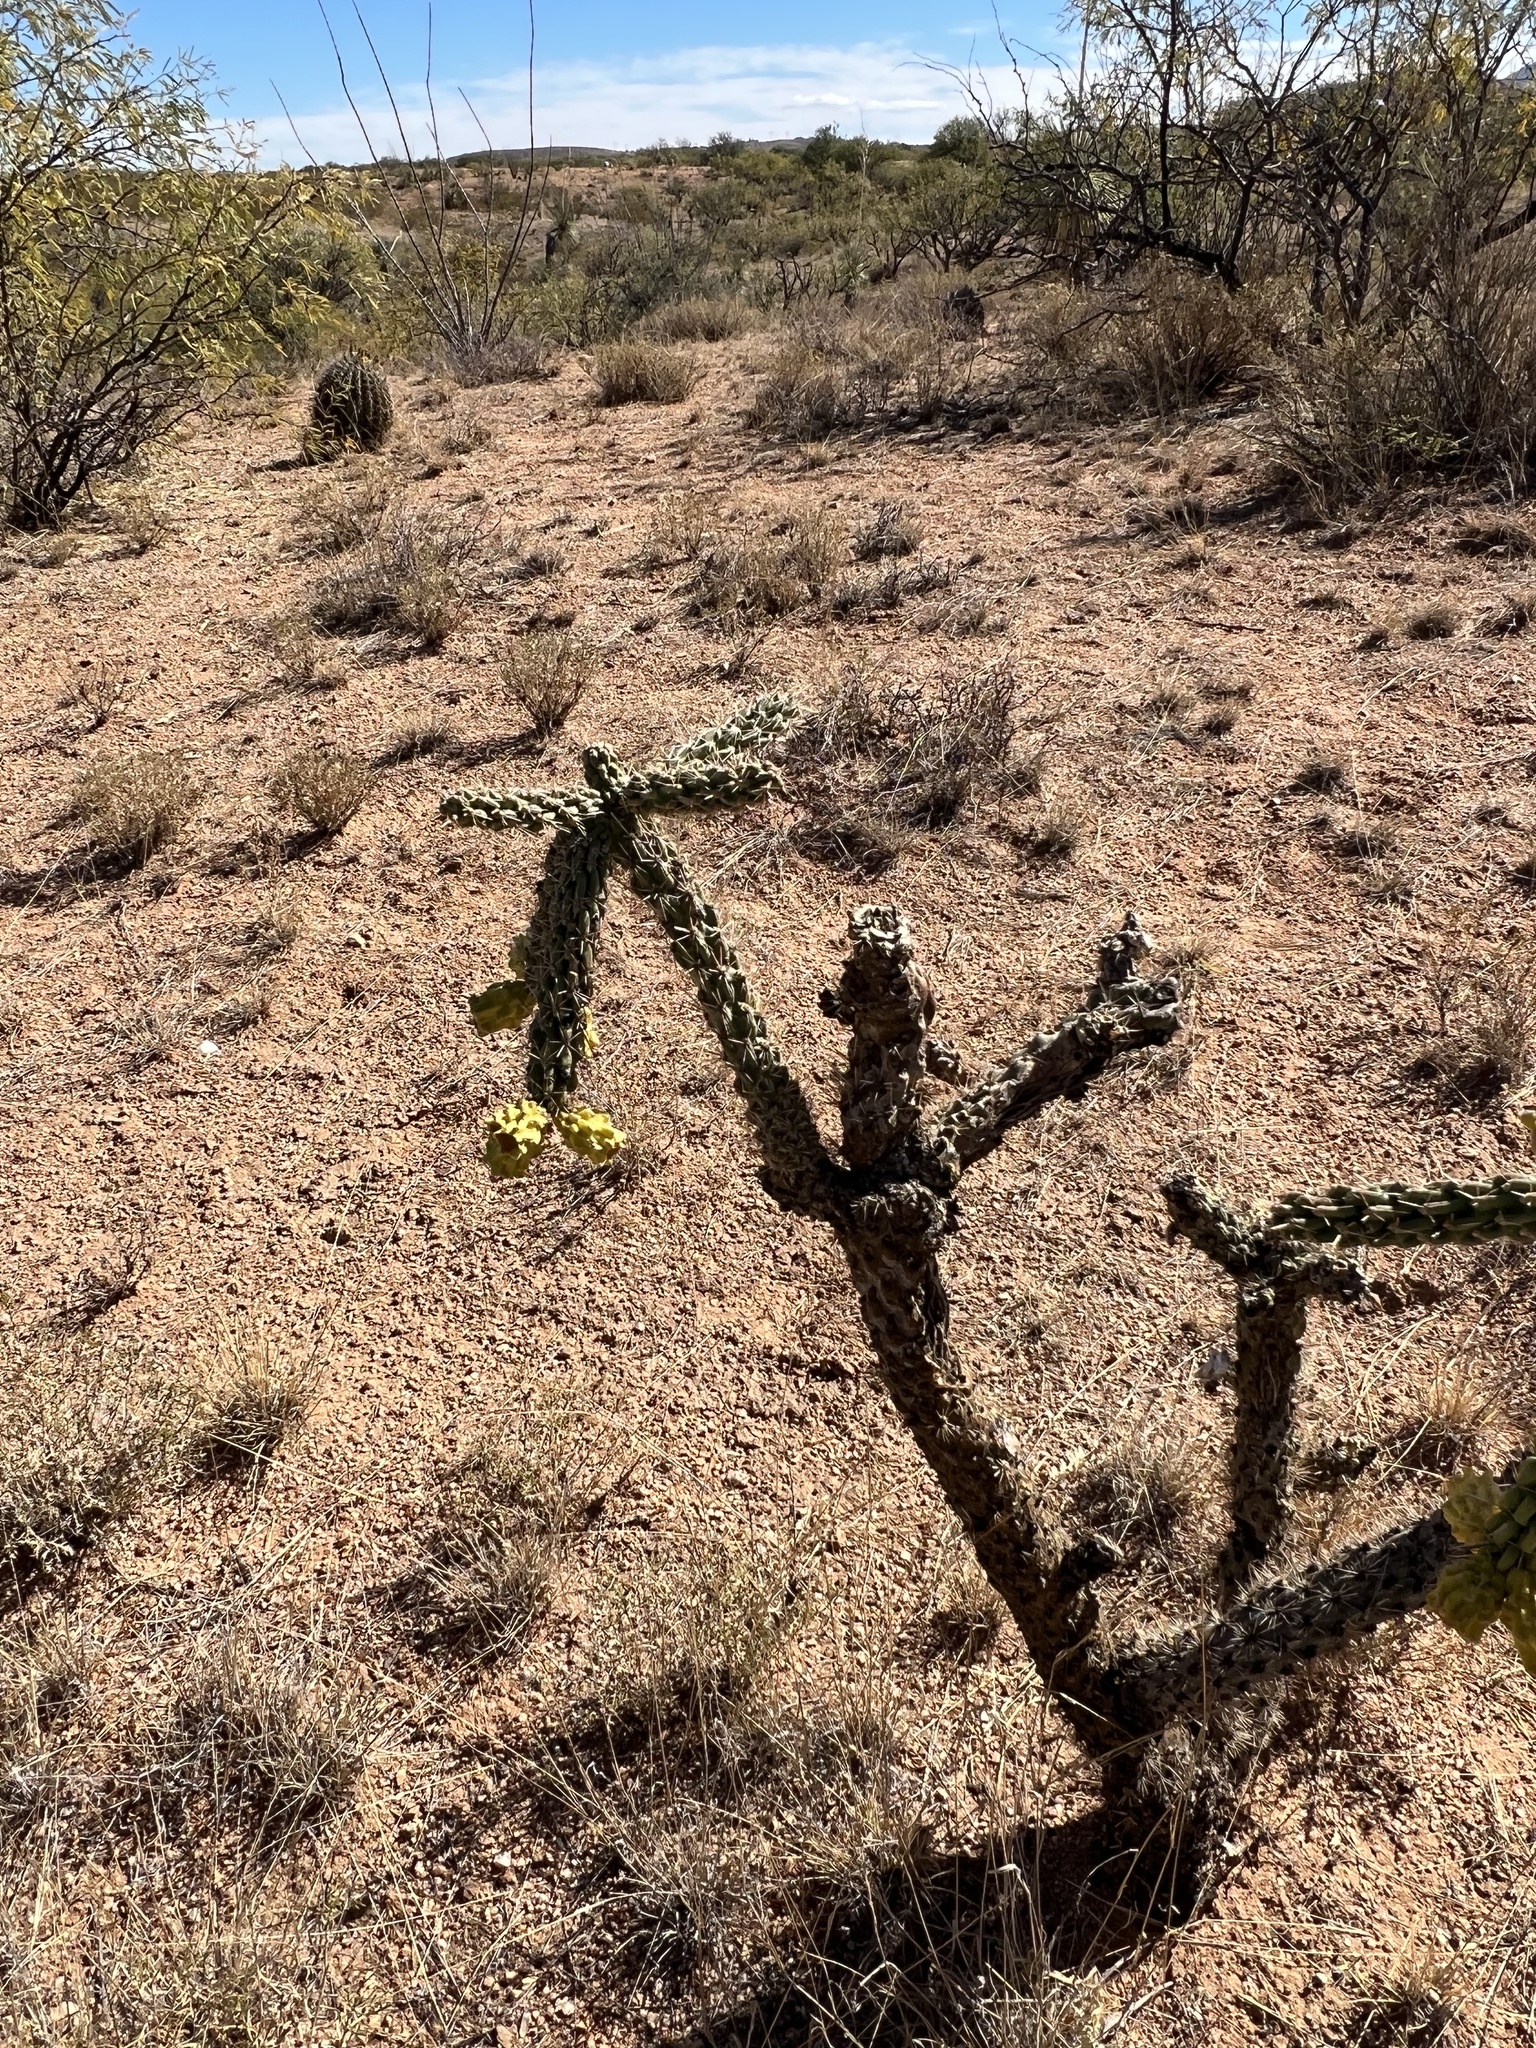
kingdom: Plantae
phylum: Tracheophyta
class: Magnoliopsida
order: Caryophyllales
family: Cactaceae
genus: Cylindropuntia
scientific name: Cylindropuntia imbricata
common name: Candelabrum cactus
